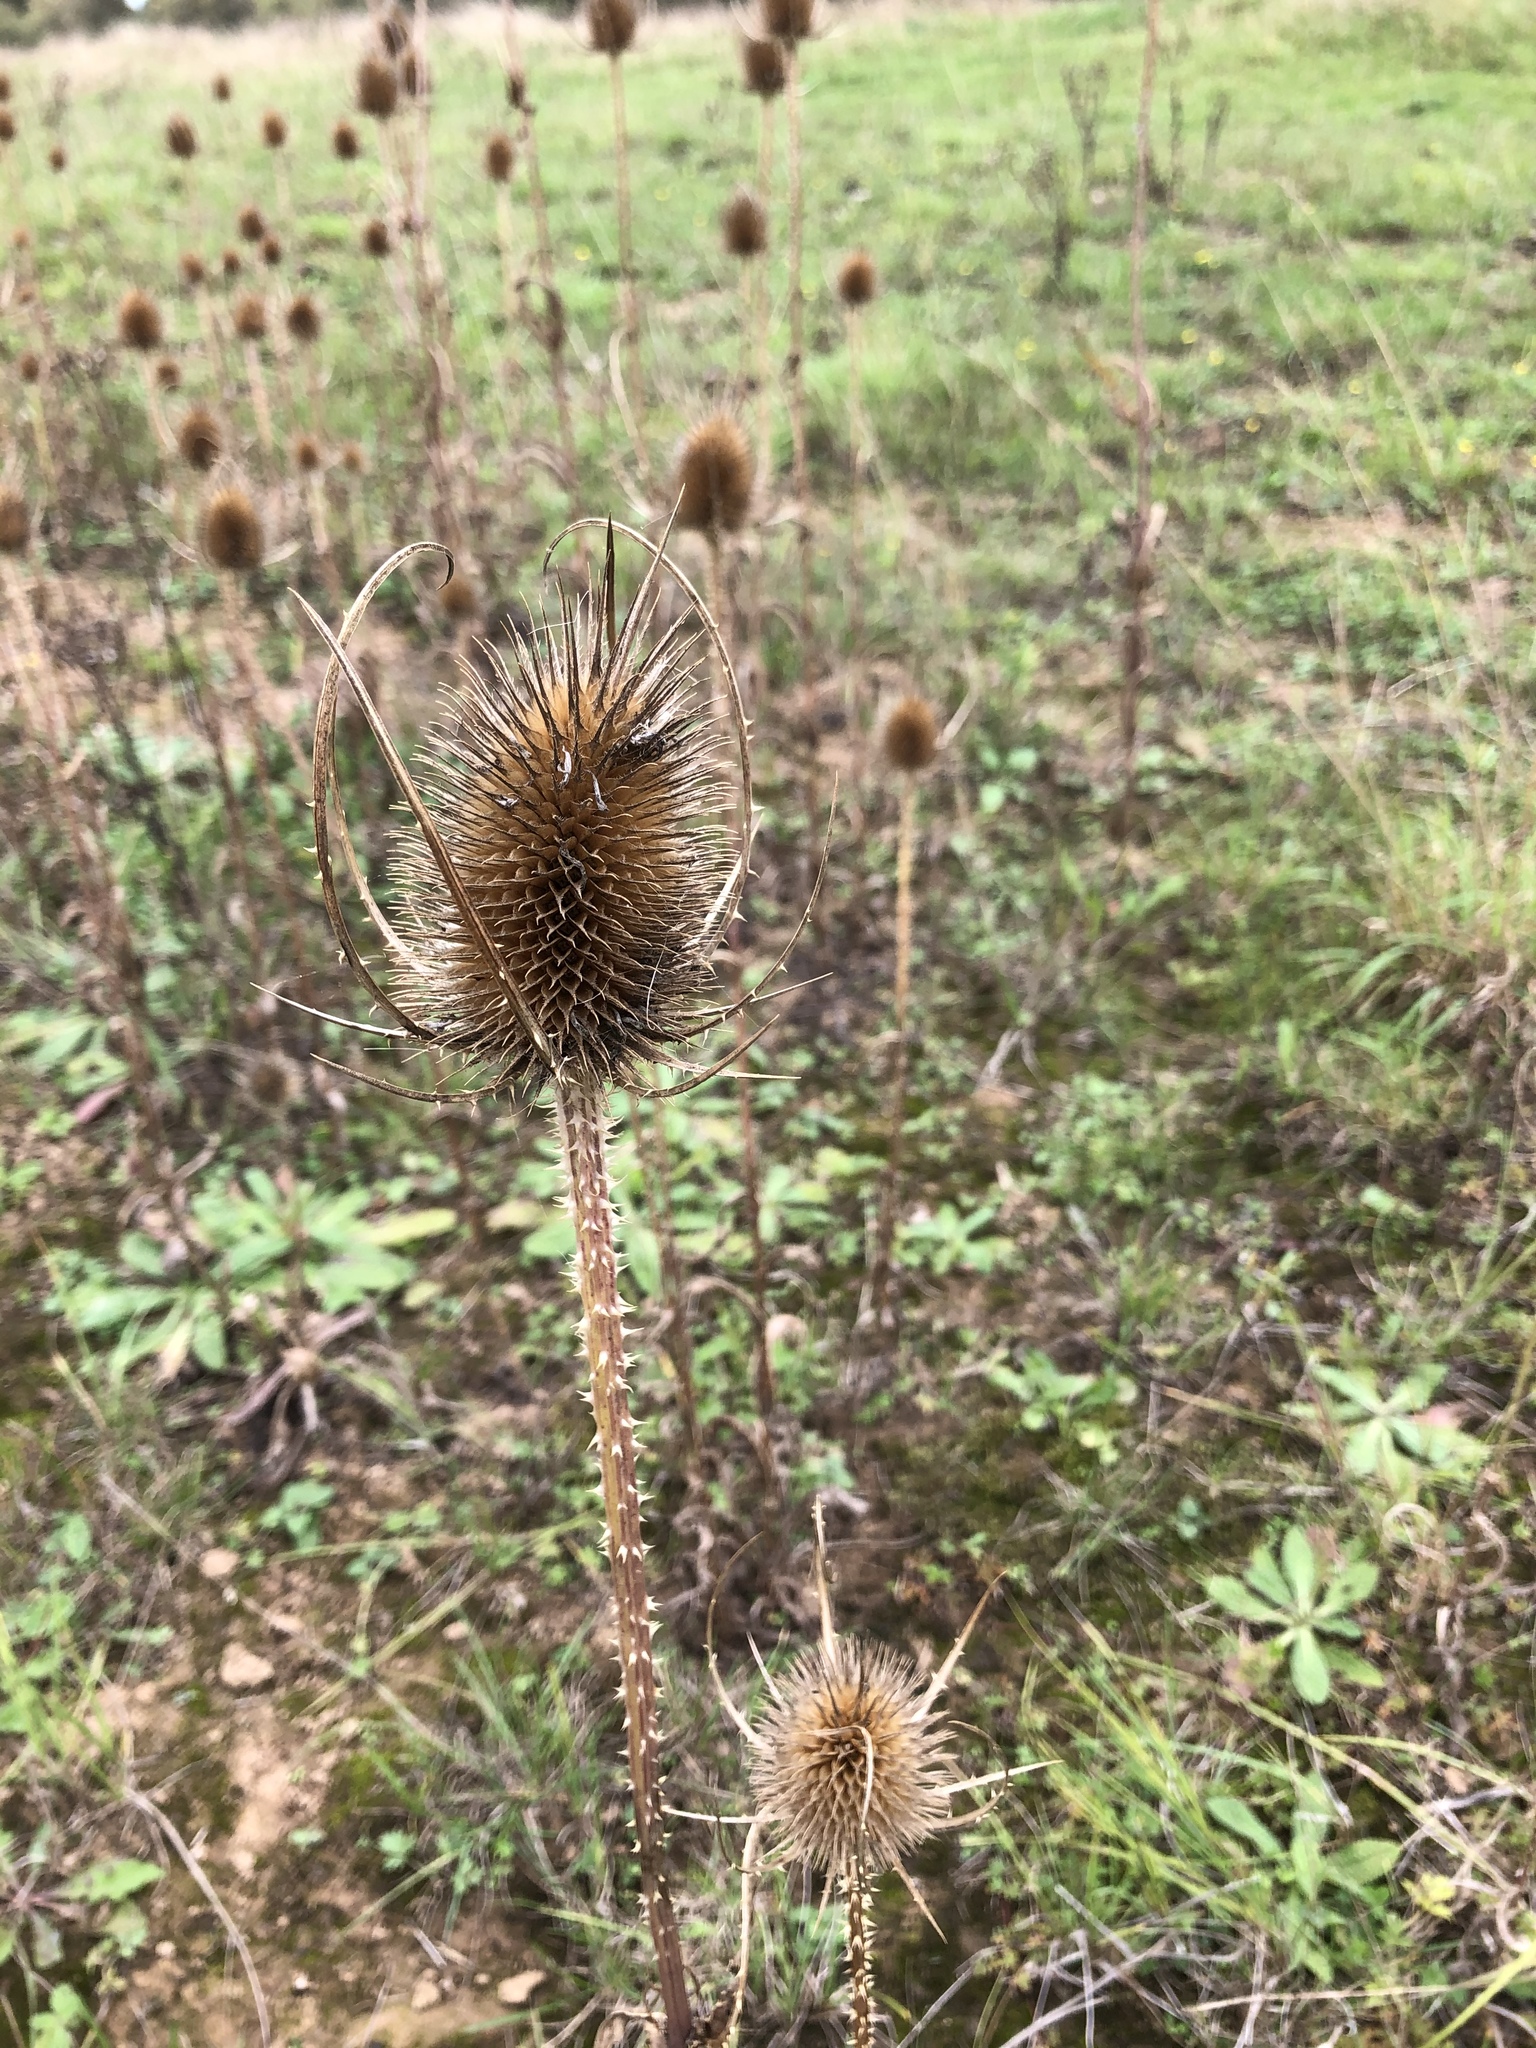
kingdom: Plantae
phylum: Tracheophyta
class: Magnoliopsida
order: Dipsacales
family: Caprifoliaceae
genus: Dipsacus
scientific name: Dipsacus fullonum
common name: Teasel
